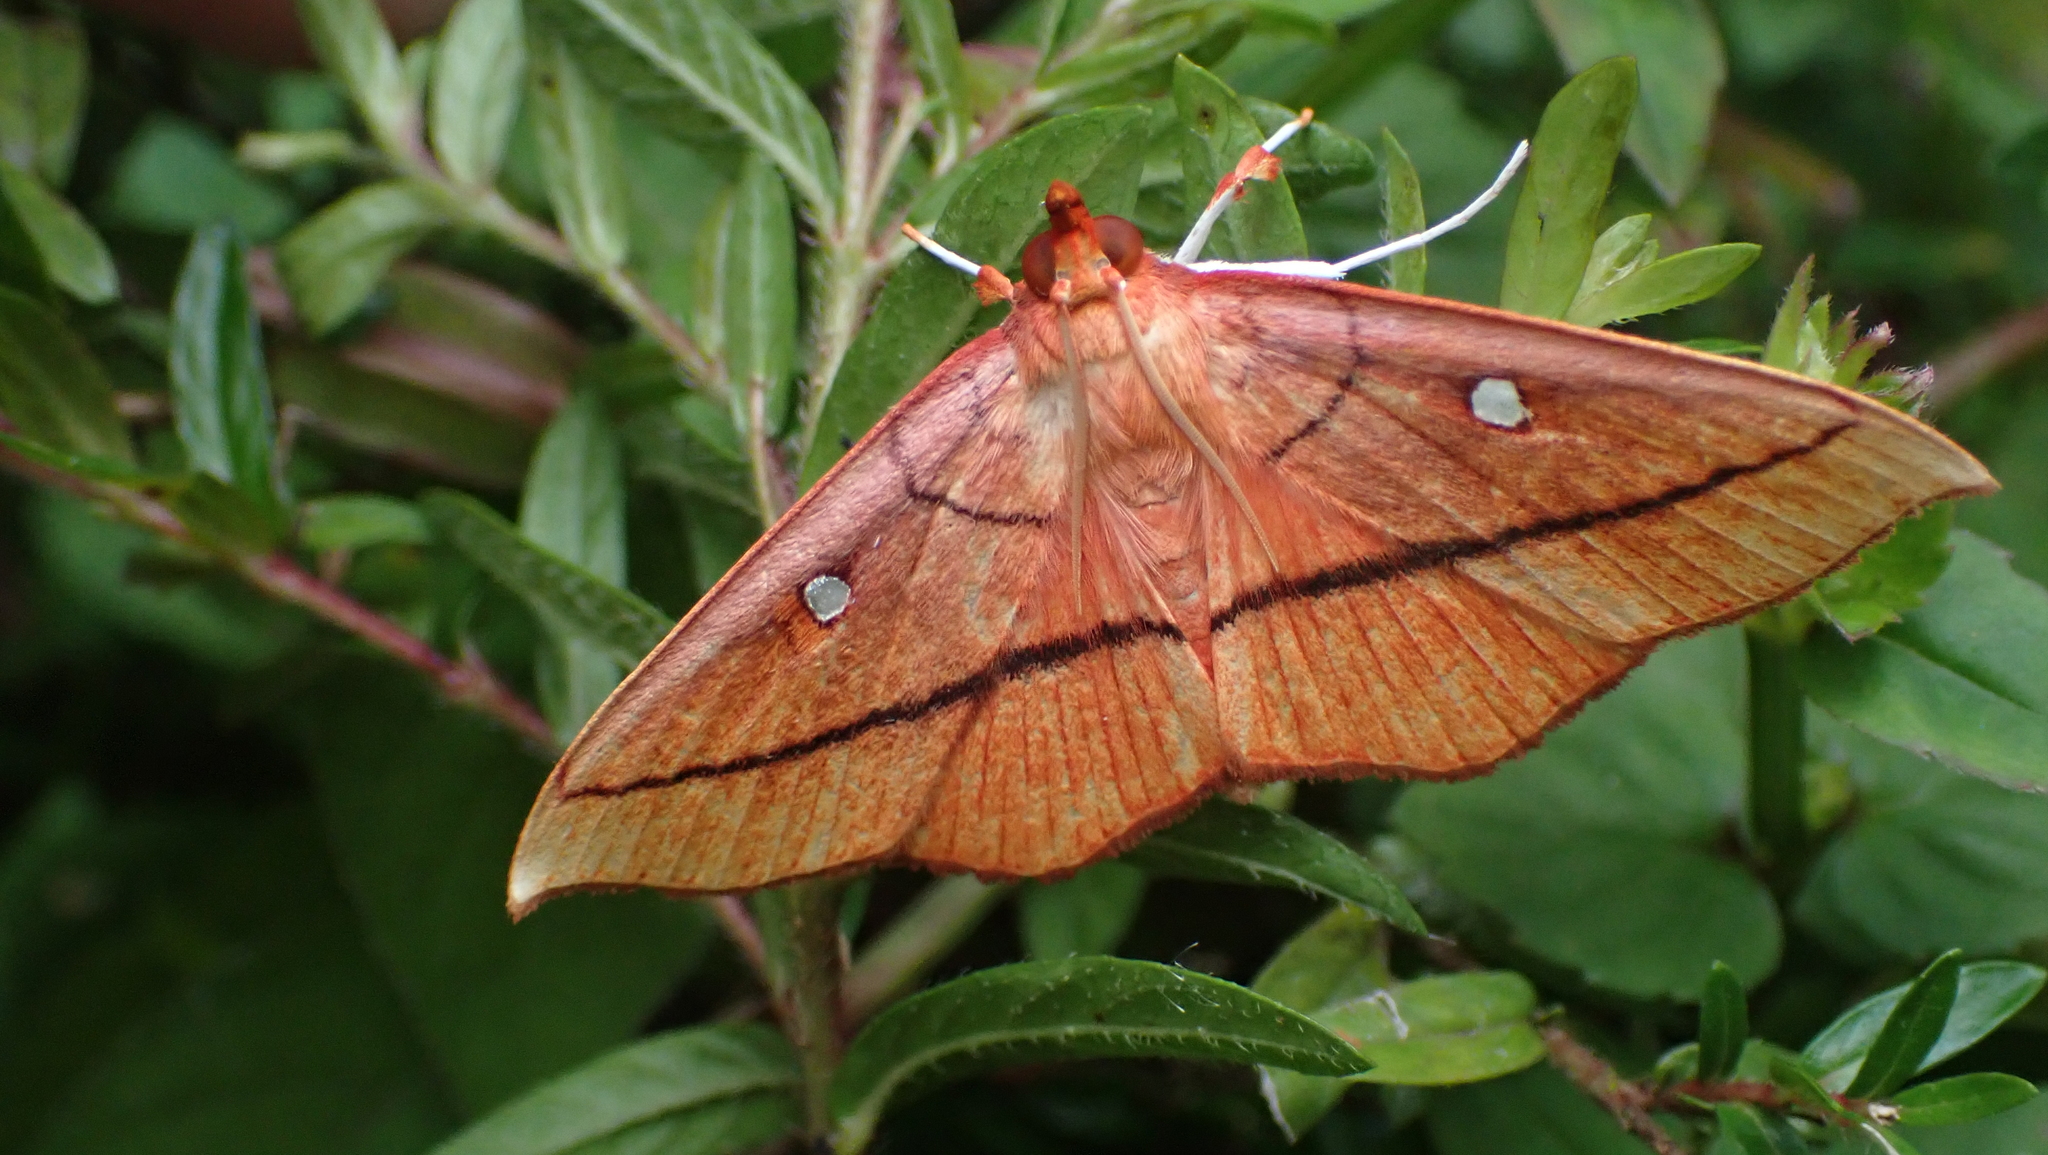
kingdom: Animalia
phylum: Arthropoda
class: Insecta
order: Lepidoptera
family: Crambidae
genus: Midila
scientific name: Midila daphne
